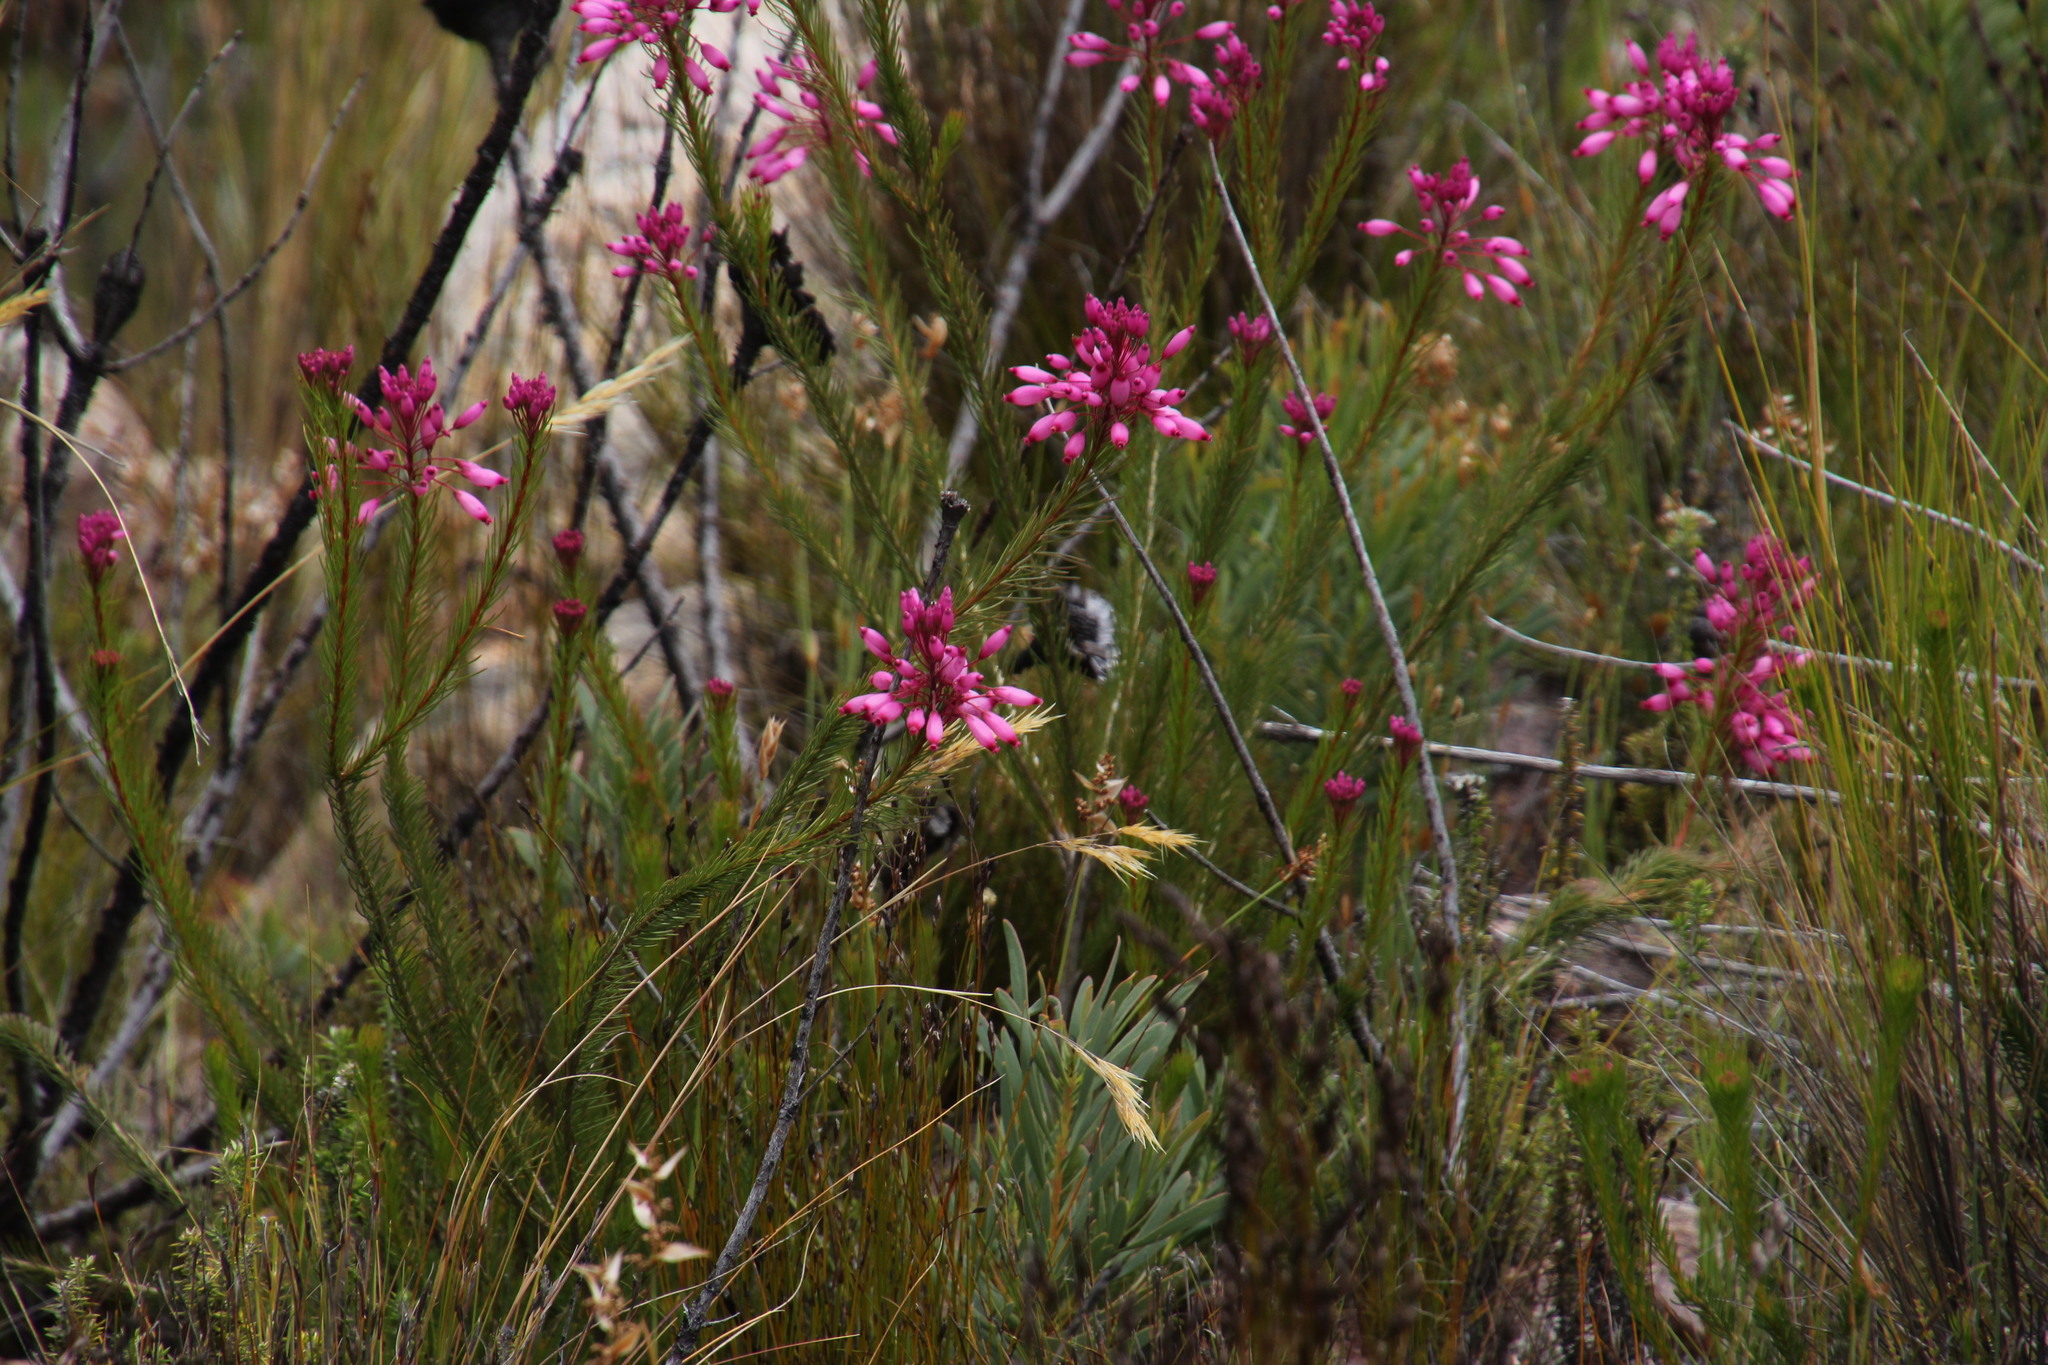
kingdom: Plantae
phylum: Tracheophyta
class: Magnoliopsida
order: Ericales
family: Ericaceae
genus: Erica
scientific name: Erica inflata
